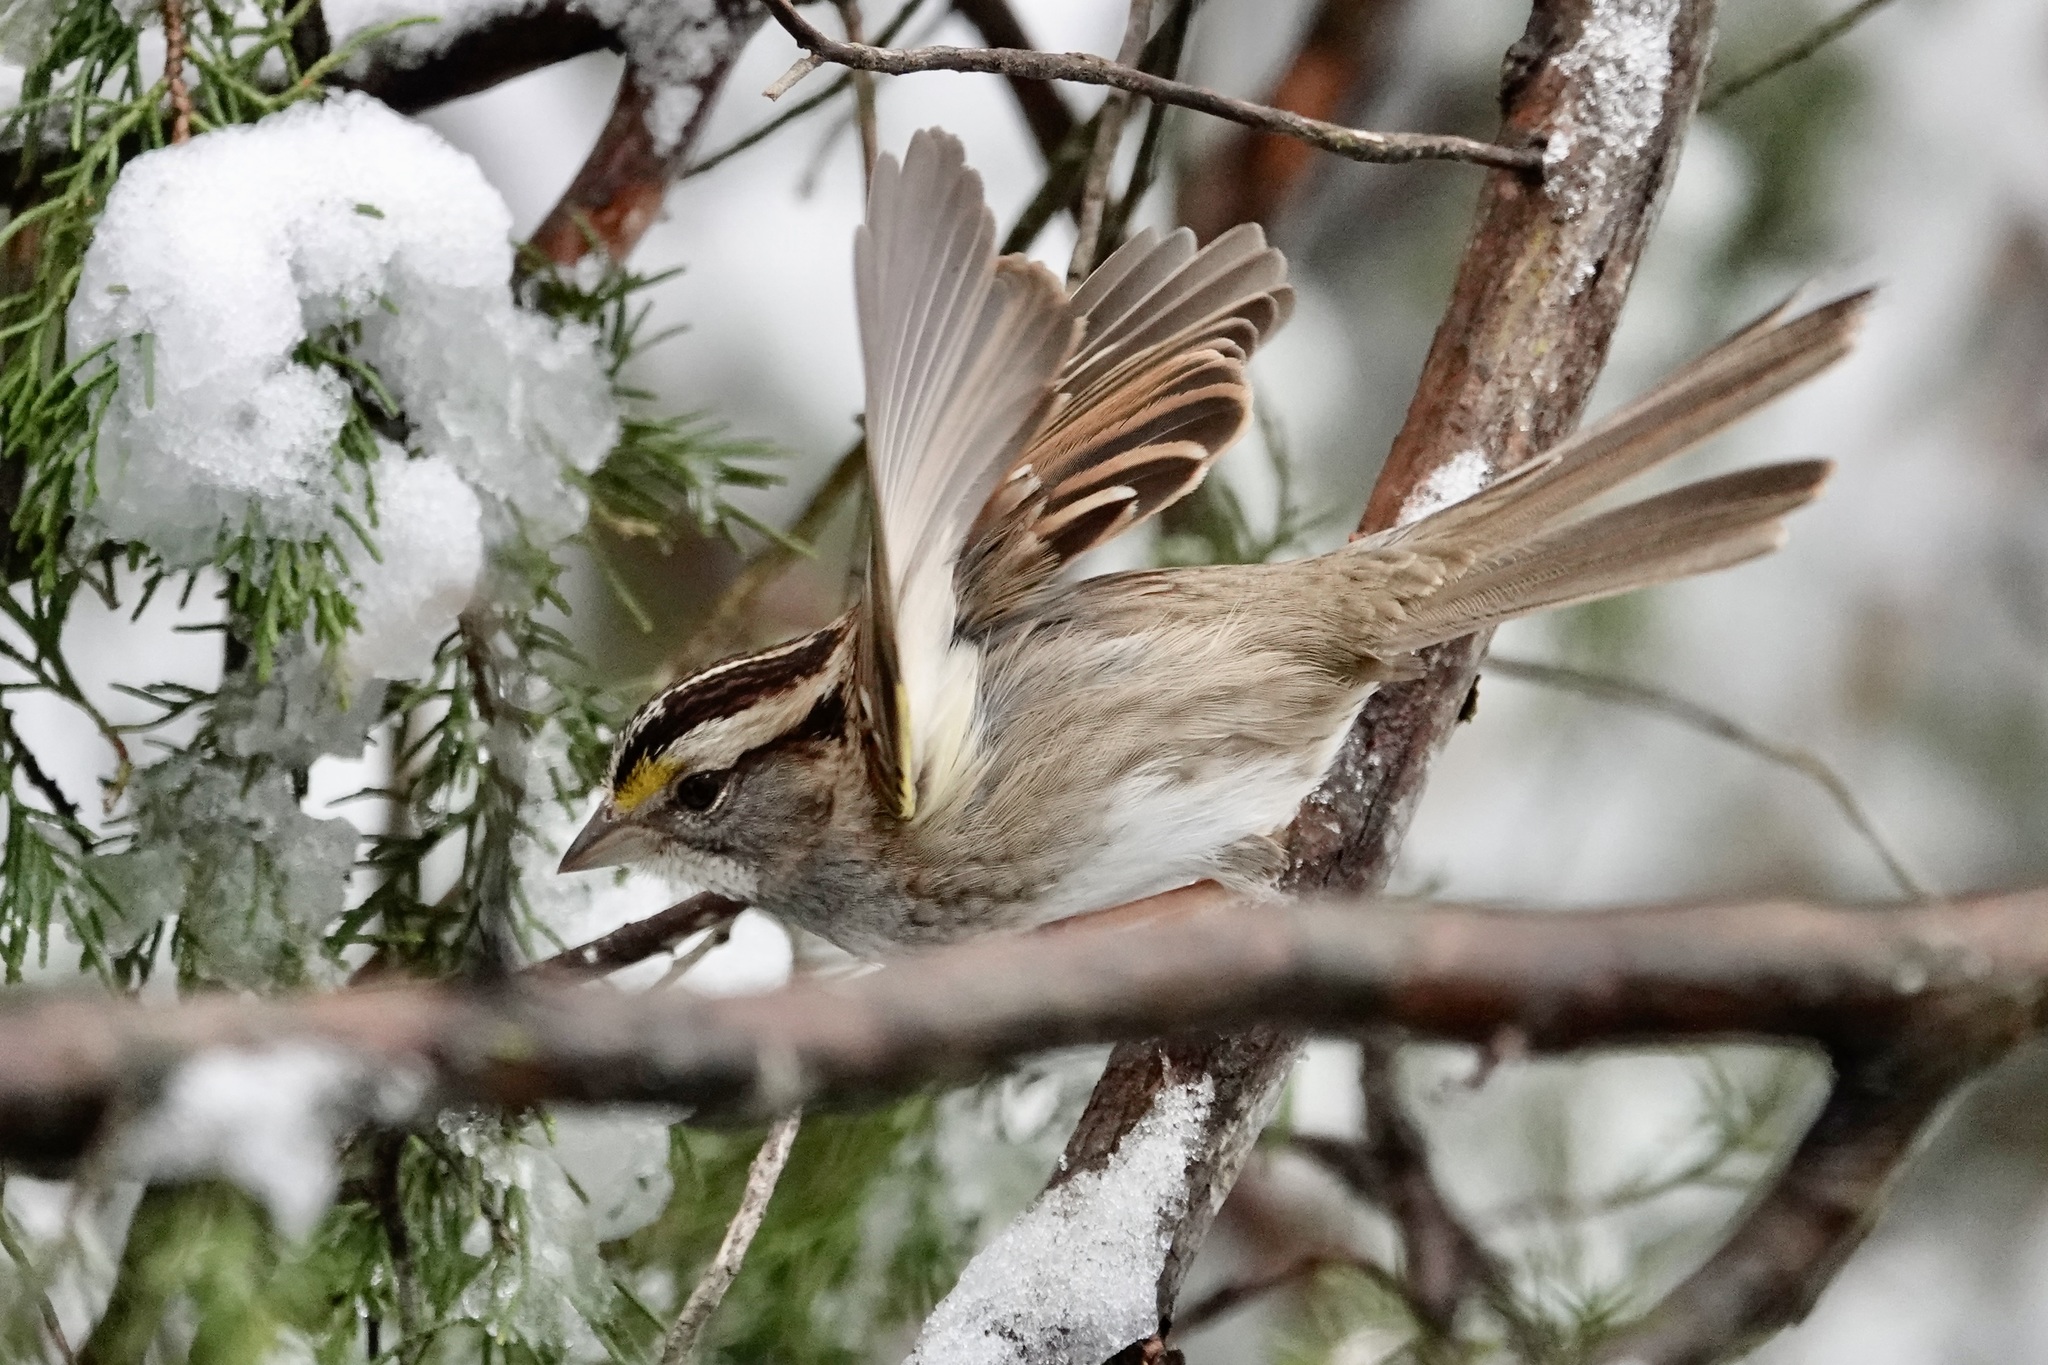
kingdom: Animalia
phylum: Chordata
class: Aves
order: Passeriformes
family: Passerellidae
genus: Zonotrichia
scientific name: Zonotrichia albicollis
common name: White-throated sparrow
